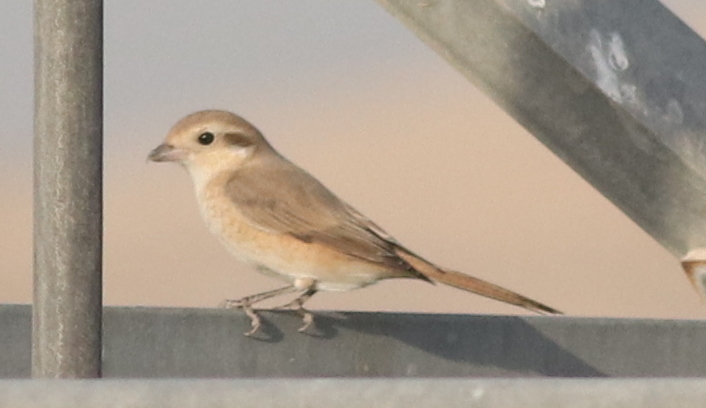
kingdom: Animalia
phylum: Chordata
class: Aves
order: Passeriformes
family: Laniidae
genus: Lanius
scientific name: Lanius isabellinus
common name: Isabelline shrike
